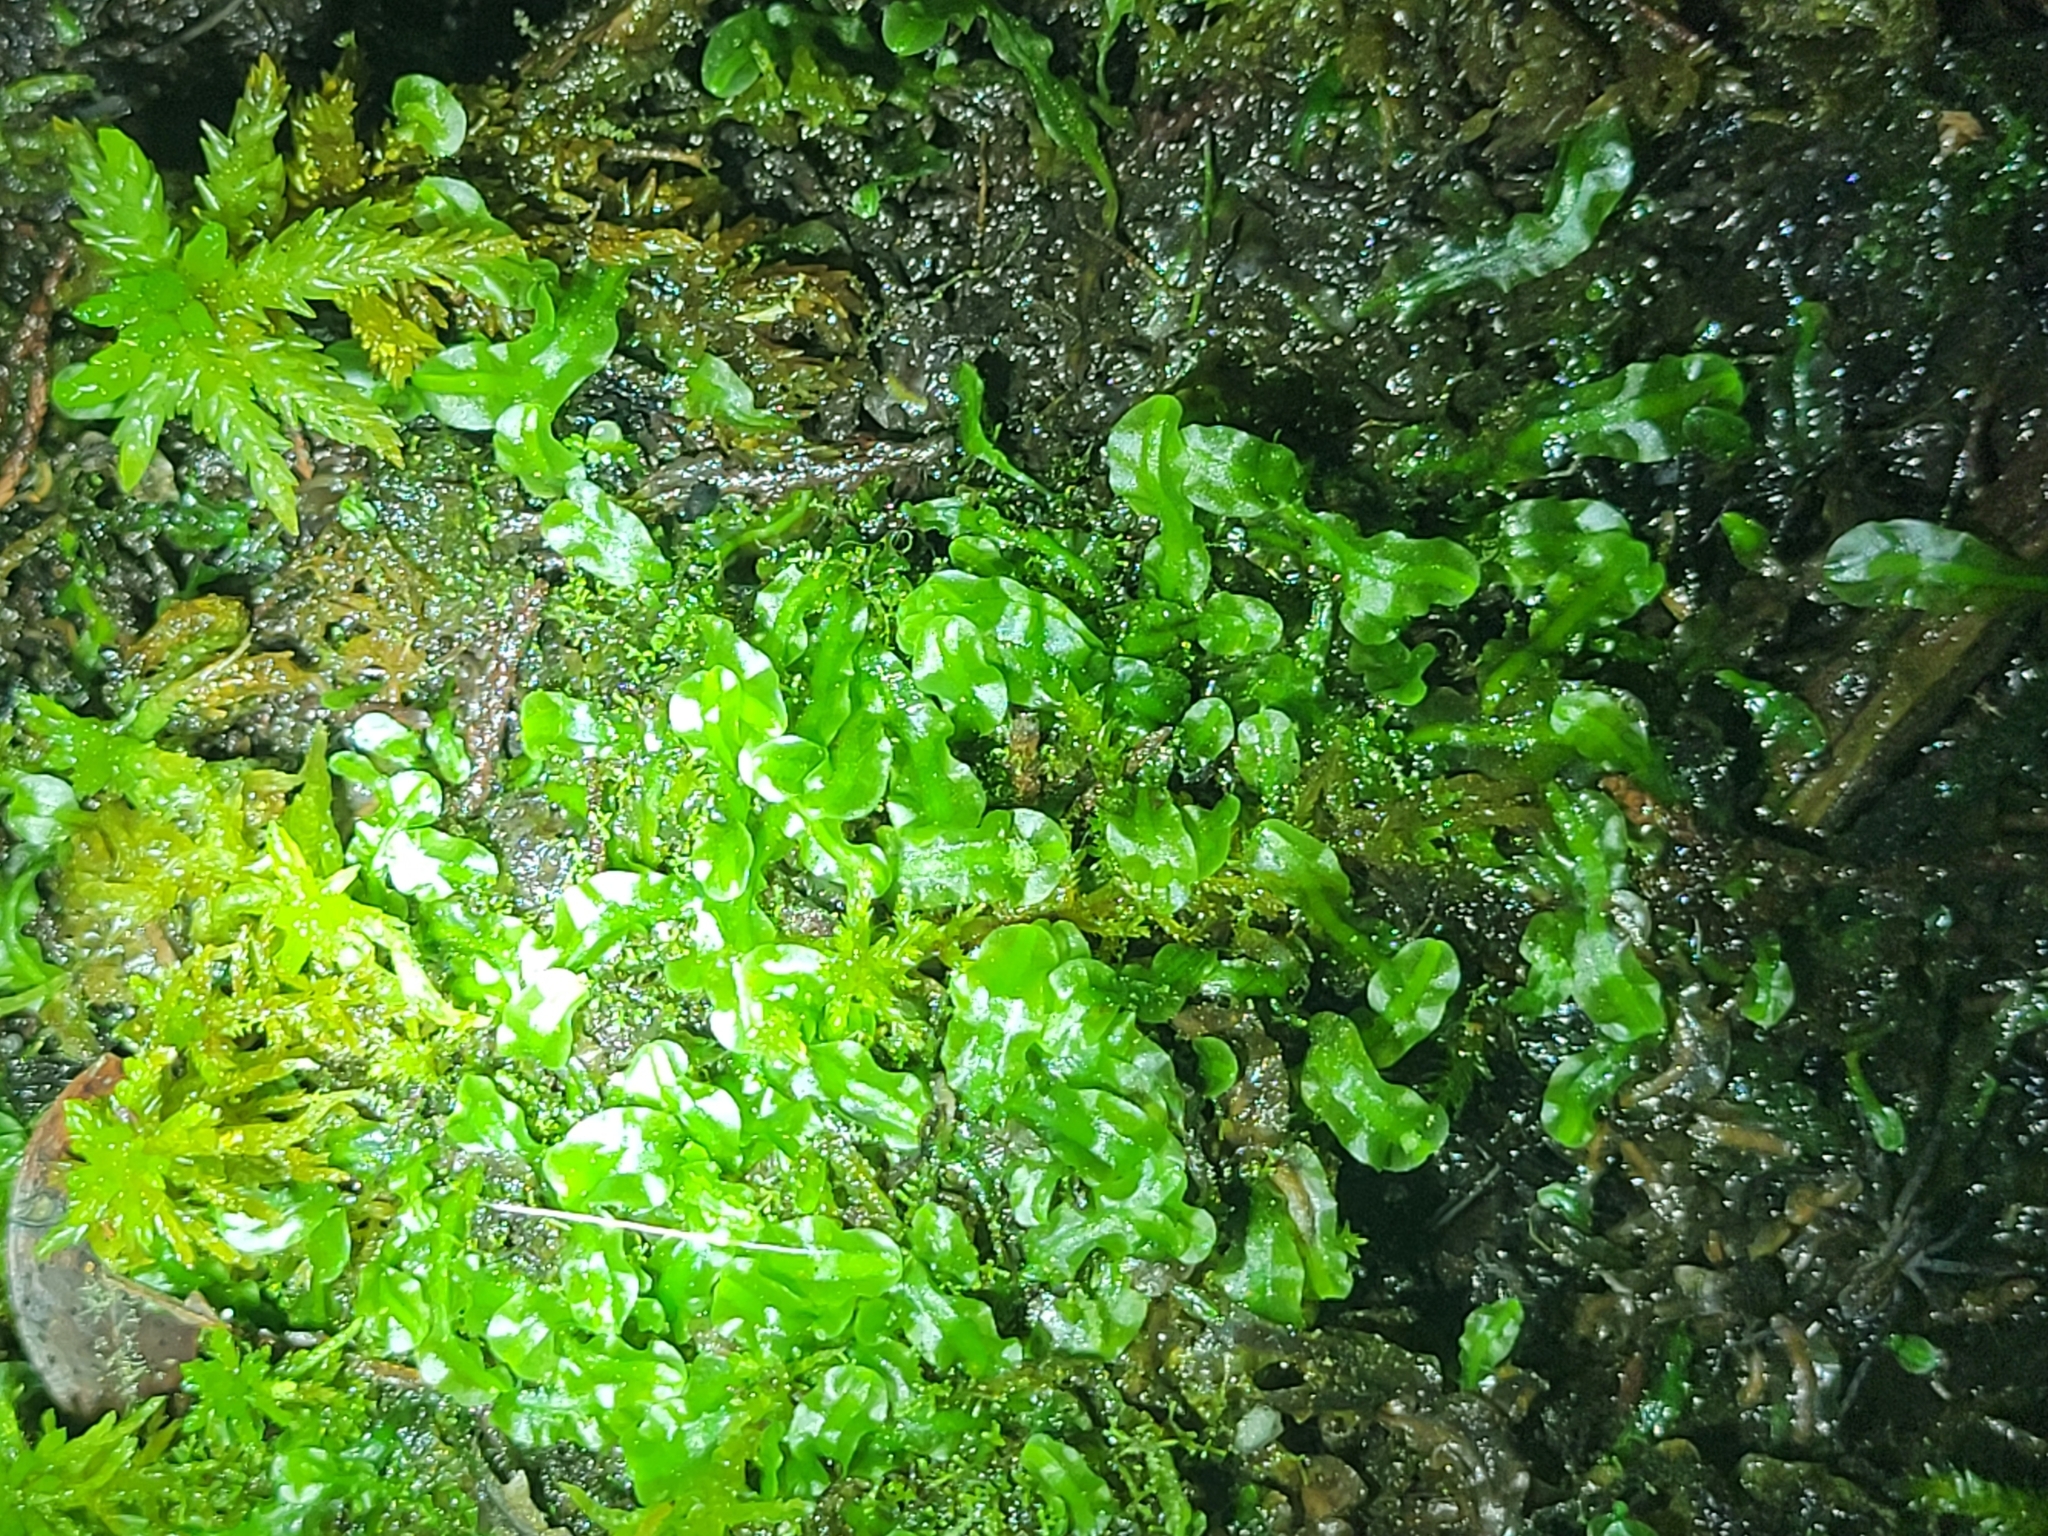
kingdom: Plantae
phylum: Marchantiophyta
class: Jungermanniopsida
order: Pallaviciniales
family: Pallaviciniaceae
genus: Pallavicinia
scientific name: Pallavicinia lyellii
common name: Veilwort
